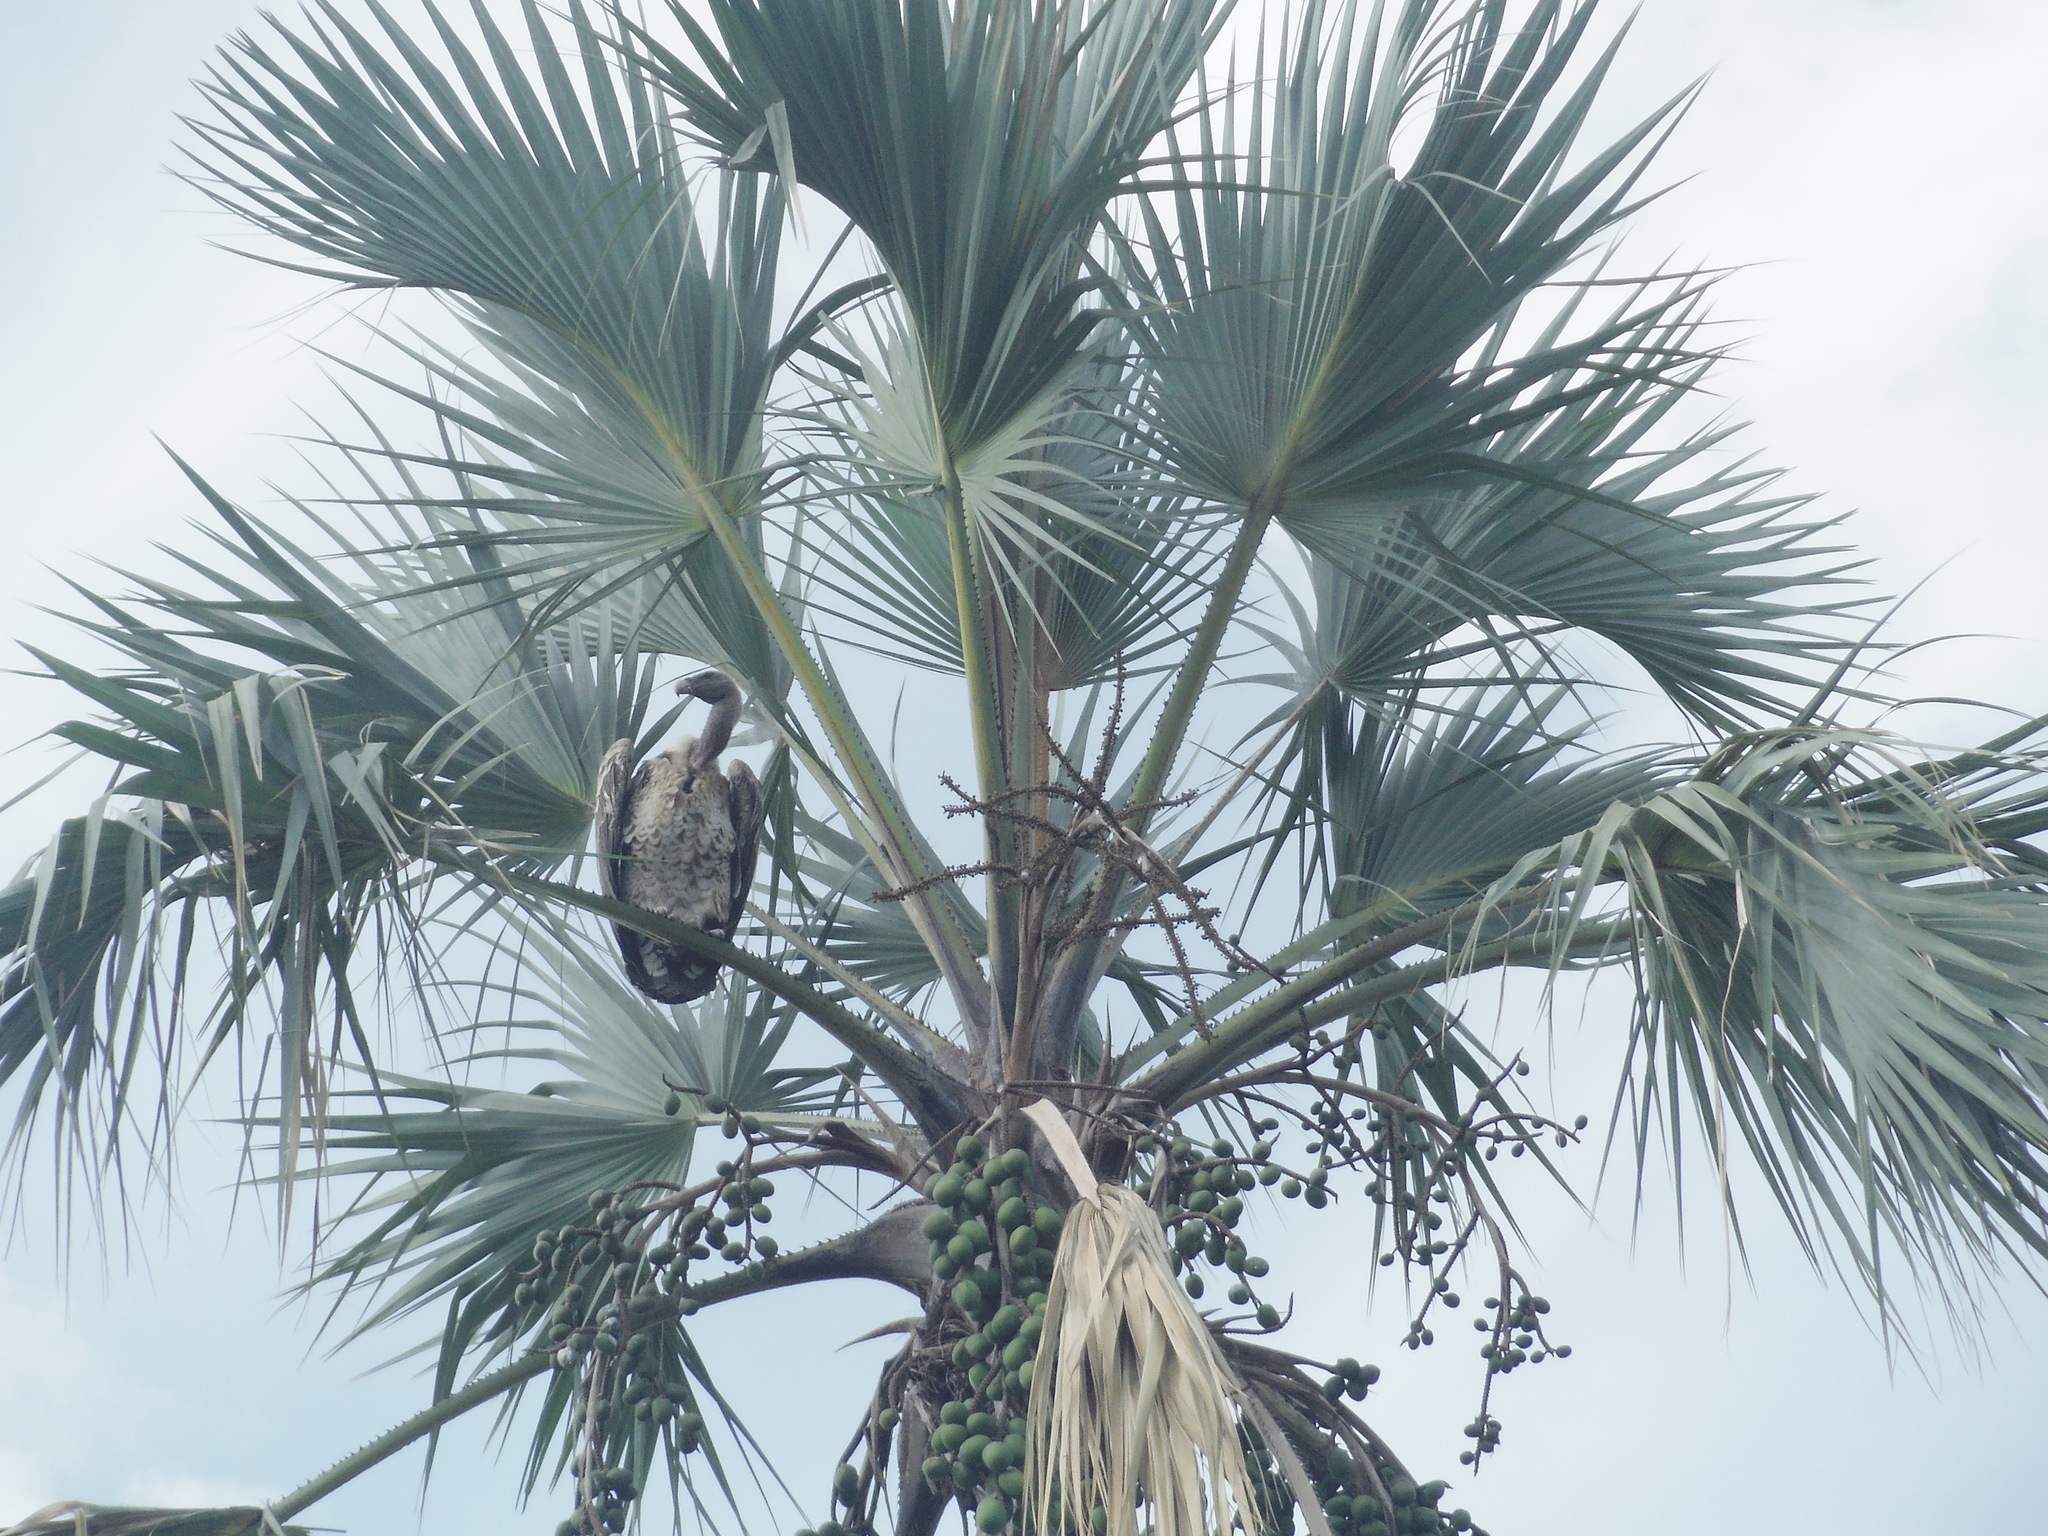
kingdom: Animalia
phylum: Chordata
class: Aves
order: Accipitriformes
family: Accipitridae
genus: Gyps
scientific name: Gyps rueppellii
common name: Rüppell's vulture
